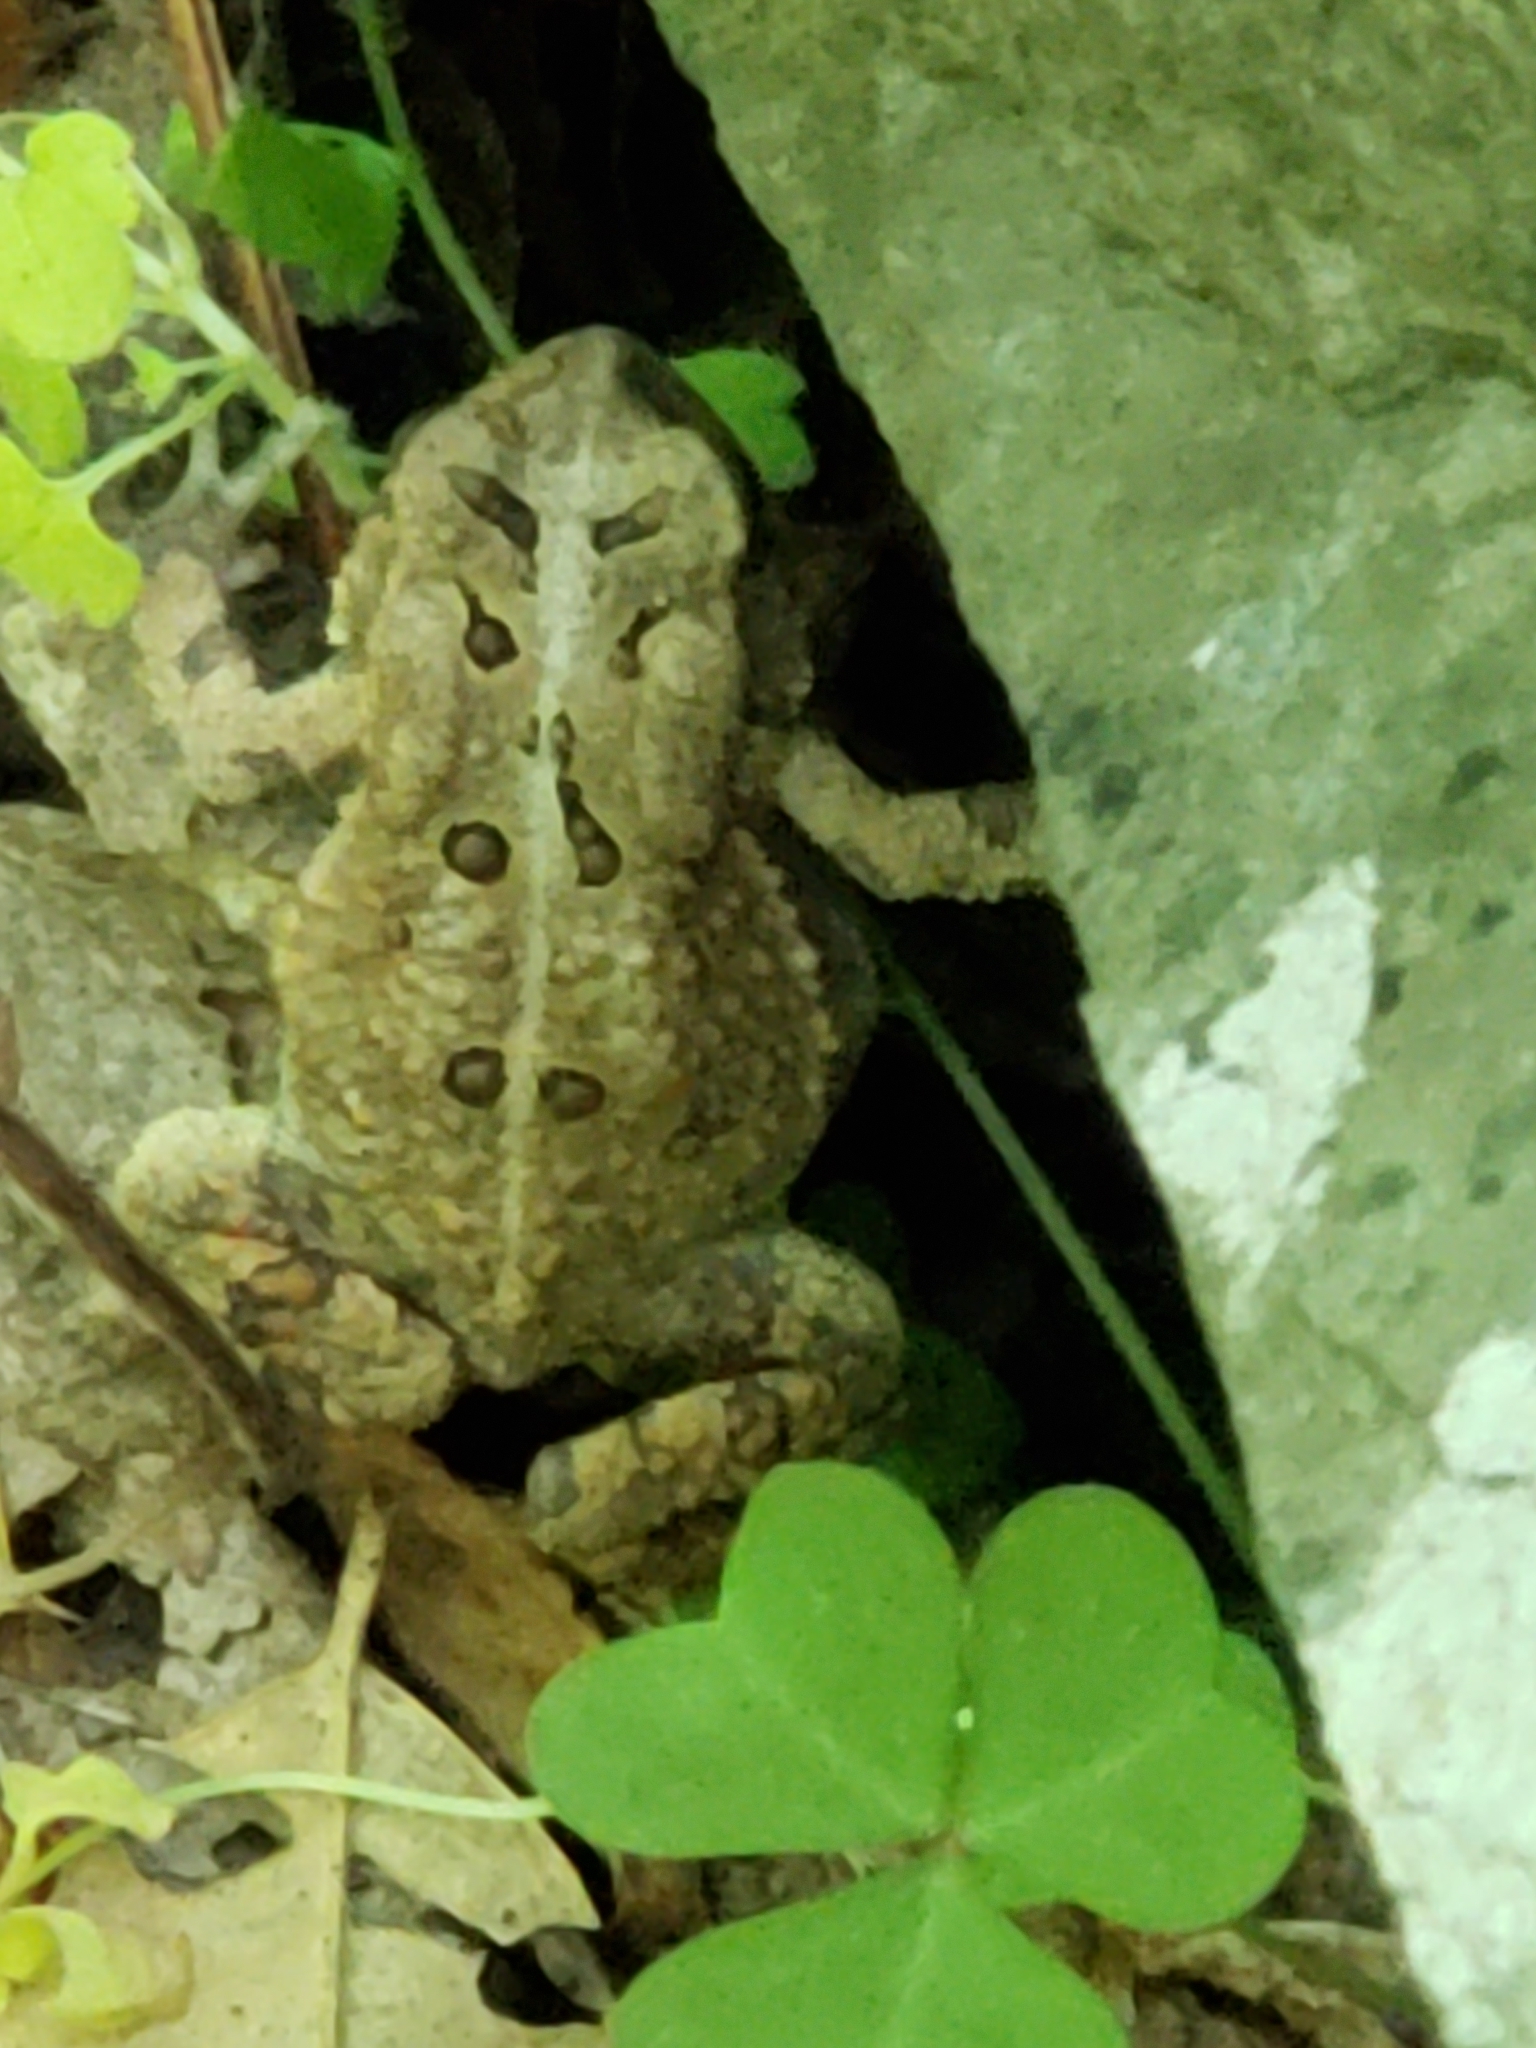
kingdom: Animalia
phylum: Chordata
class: Amphibia
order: Anura
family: Bufonidae
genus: Anaxyrus
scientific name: Anaxyrus americanus
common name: American toad
